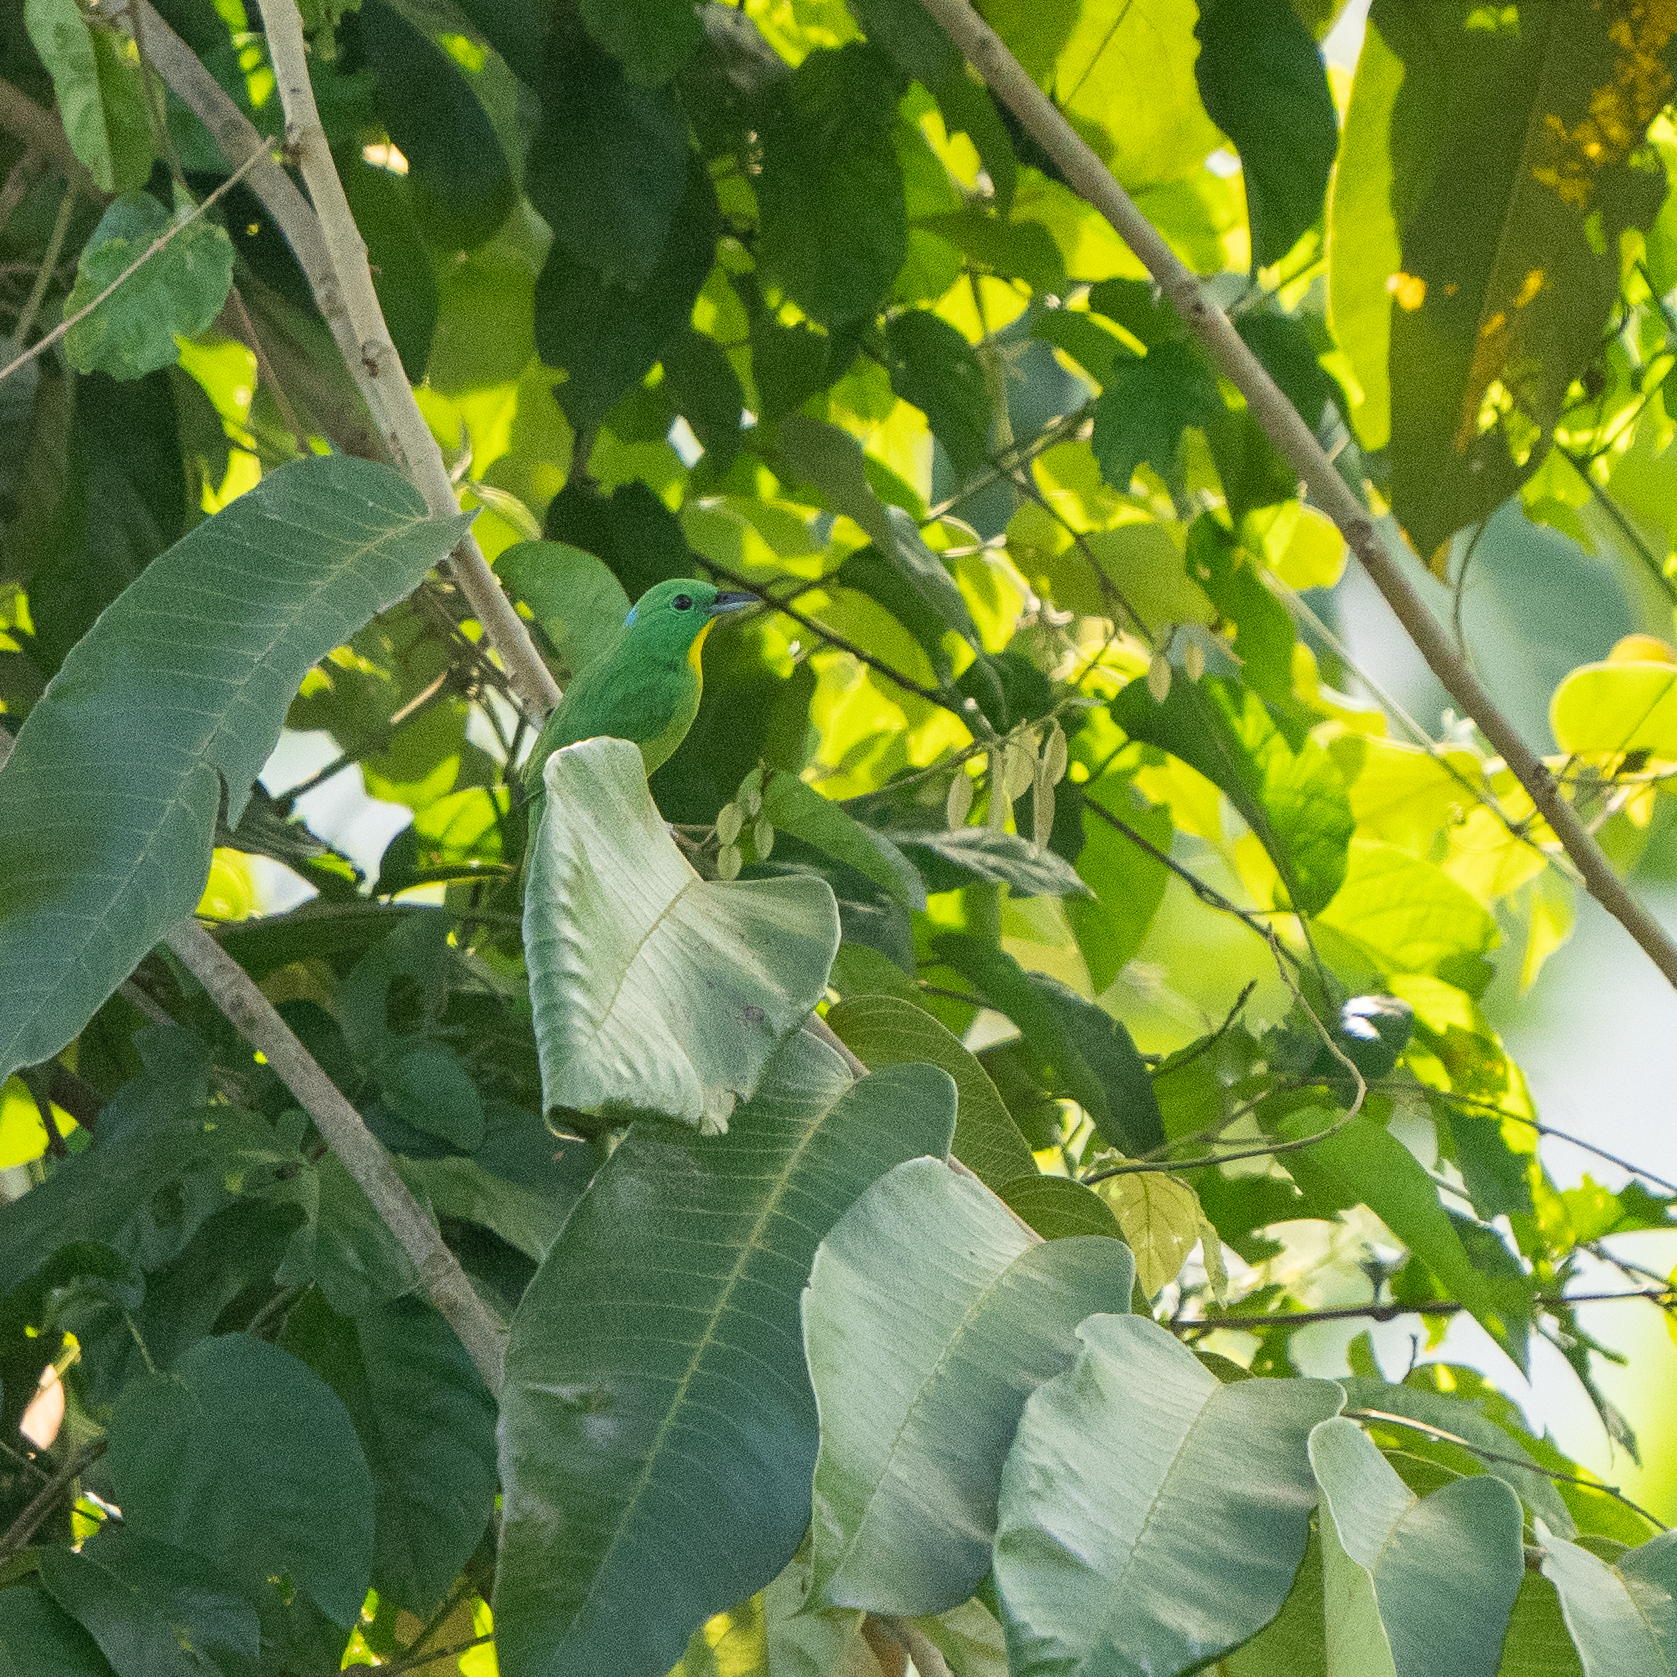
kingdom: Animalia
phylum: Chordata
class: Aves
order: Passeriformes
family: Vireonidae
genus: Vireolanius
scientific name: Vireolanius pulchellus
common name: Green shrike-vireo
